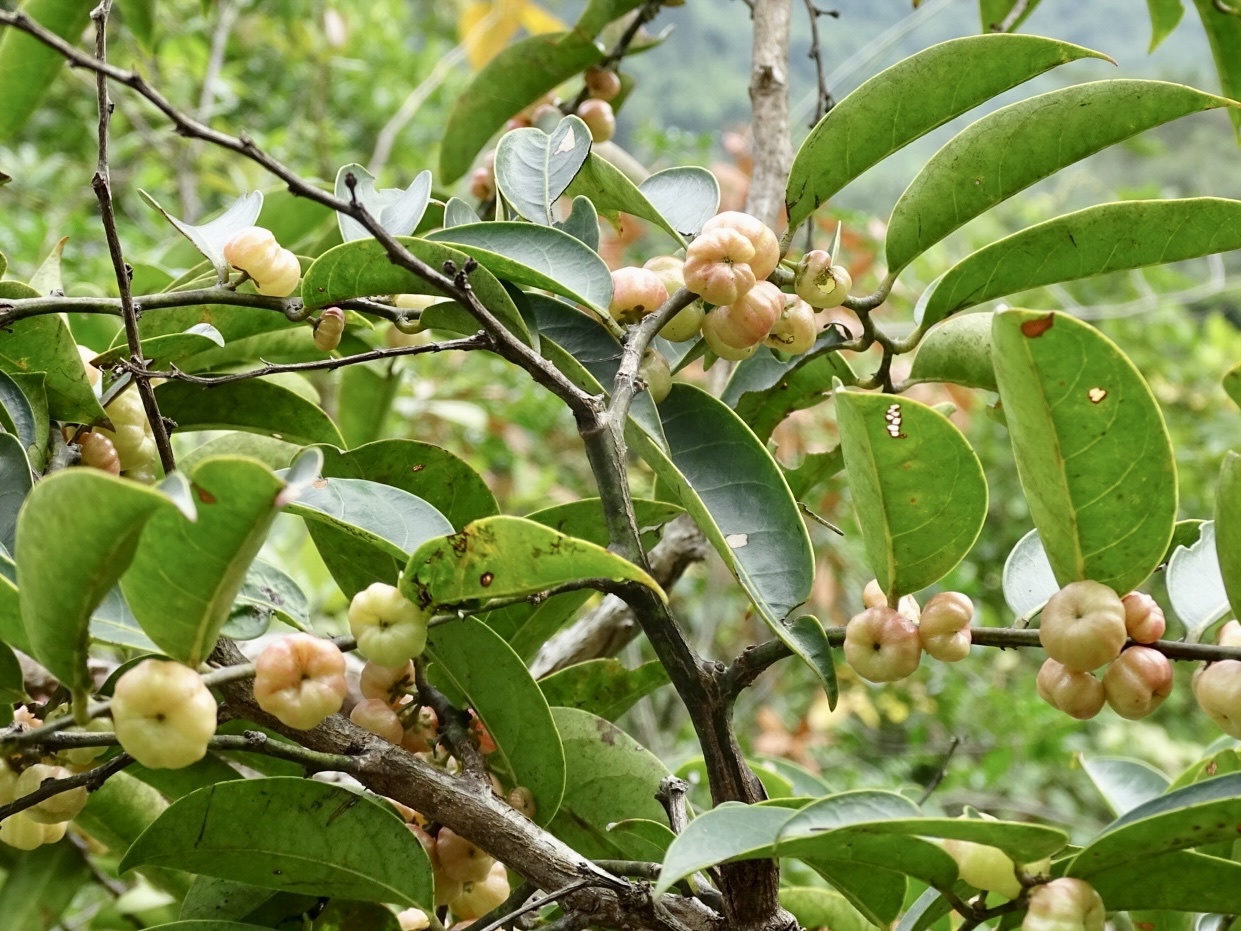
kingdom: Plantae
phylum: Tracheophyta
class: Magnoliopsida
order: Malpighiales
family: Phyllanthaceae
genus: Glochidion
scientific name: Glochidion lanceolarium
